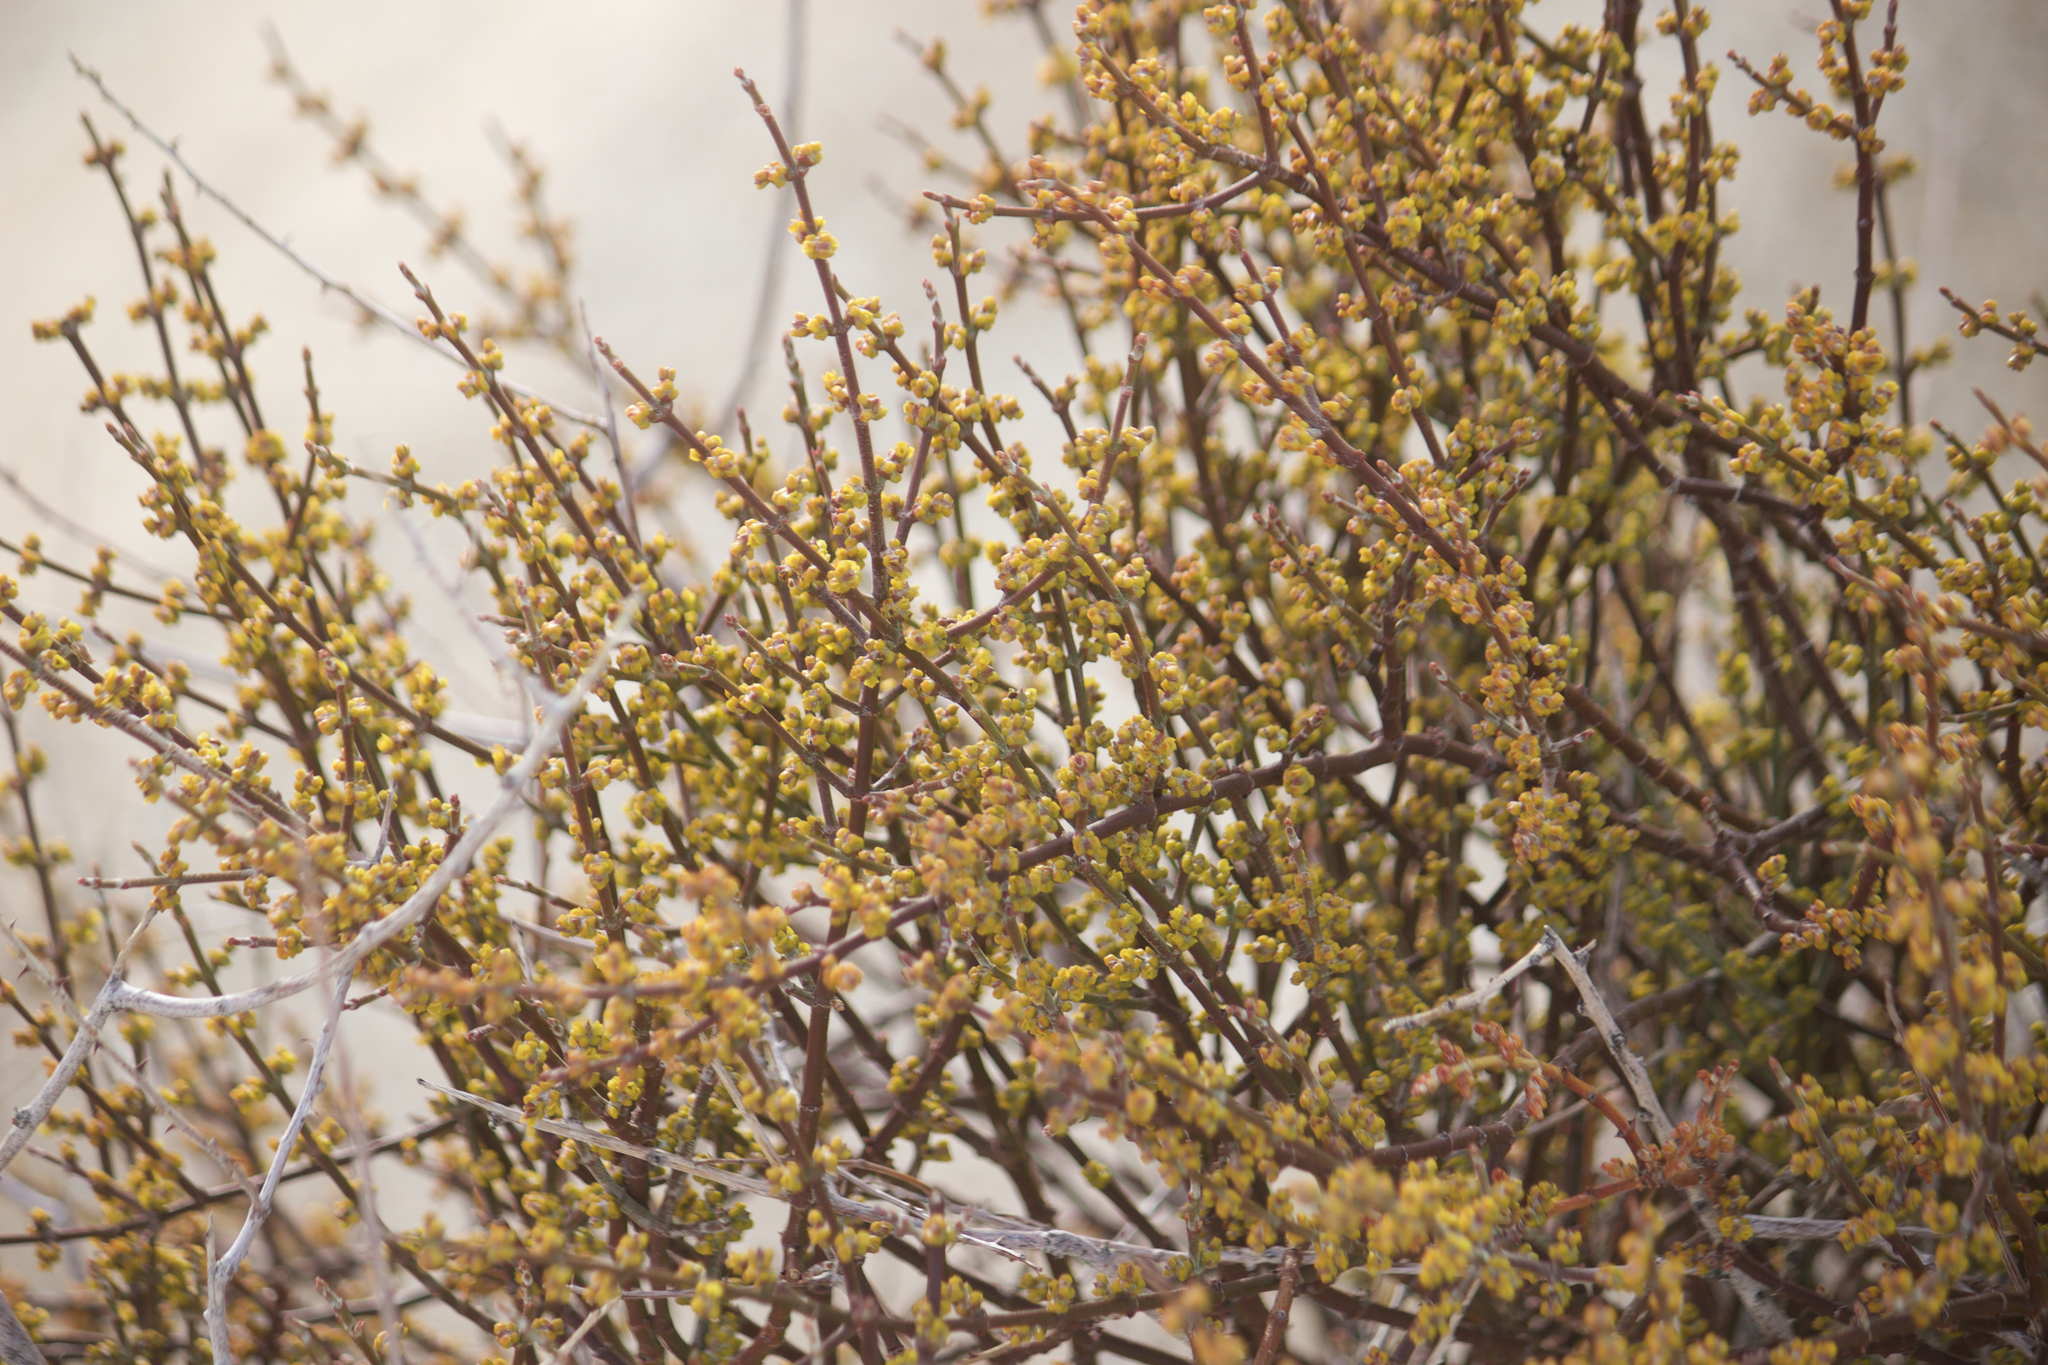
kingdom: Plantae
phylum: Tracheophyta
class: Magnoliopsida
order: Santalales
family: Viscaceae
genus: Phoradendron
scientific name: Phoradendron californicum
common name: Acacia mistletoe
